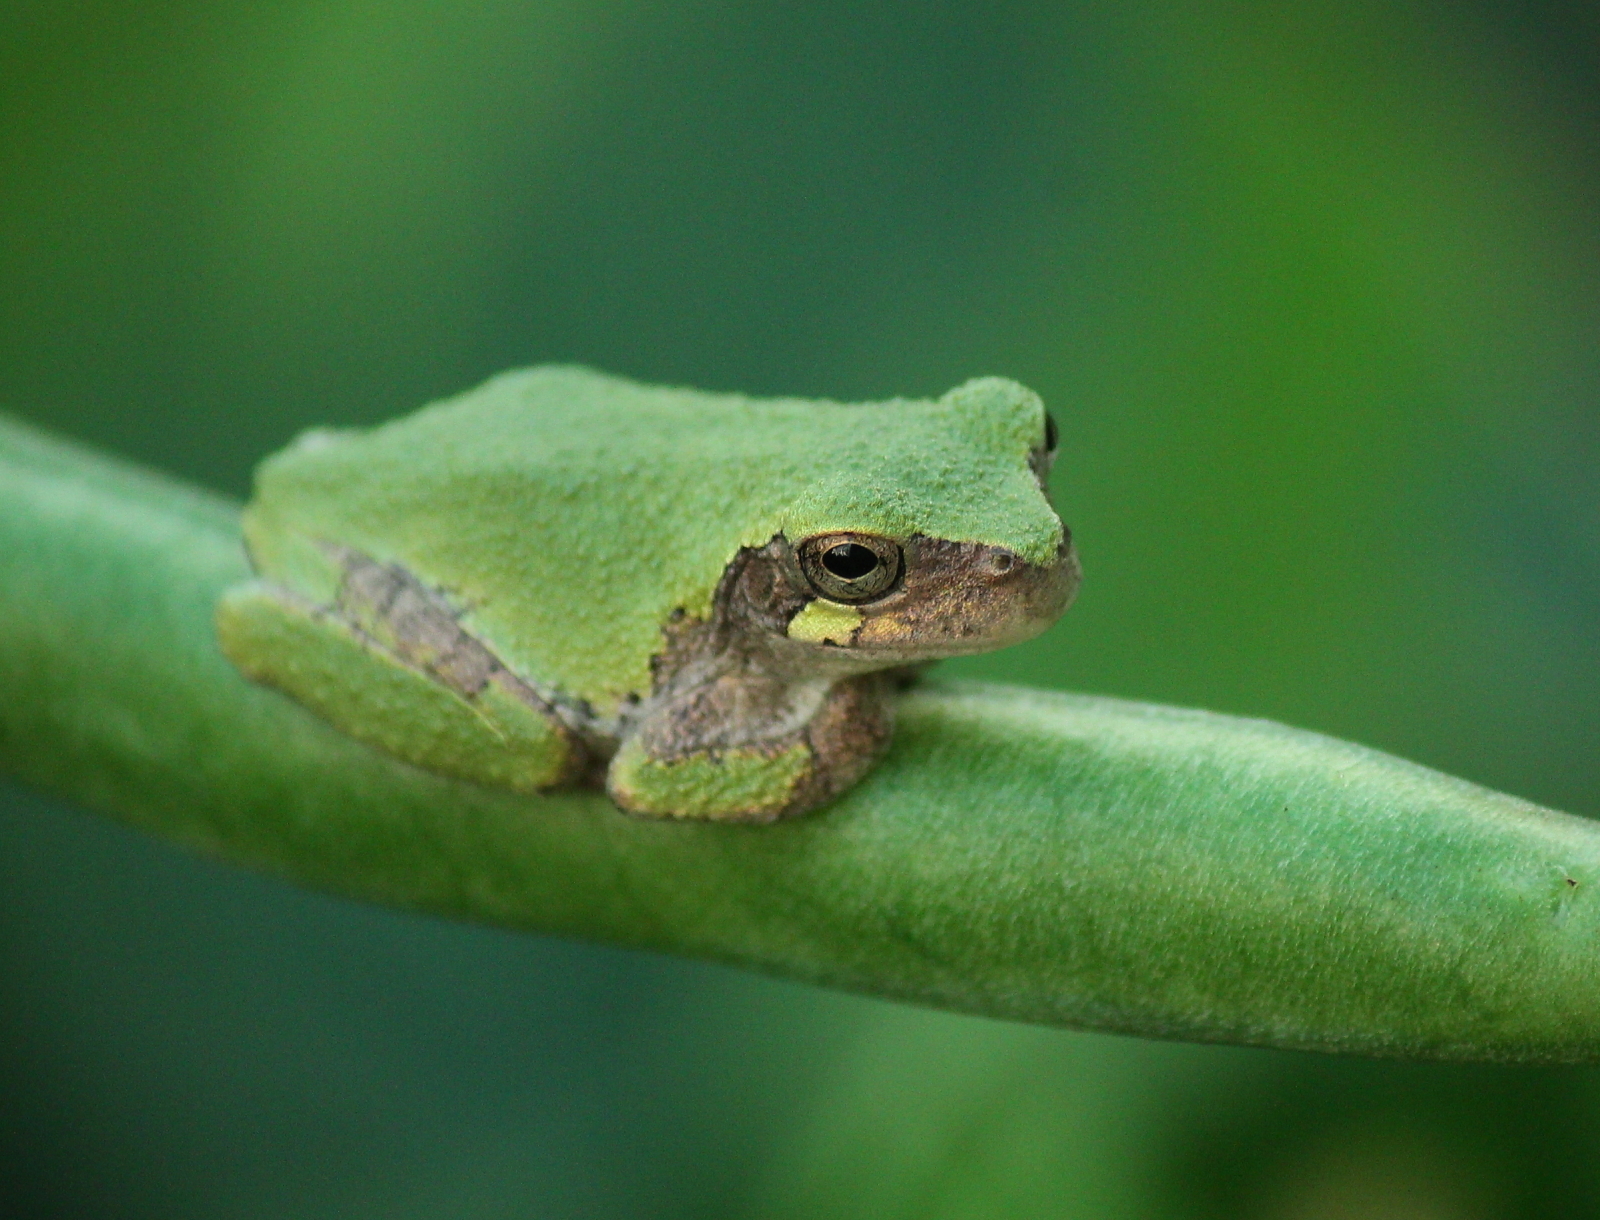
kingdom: Animalia
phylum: Chordata
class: Amphibia
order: Anura
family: Hylidae
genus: Hyla
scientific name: Hyla
